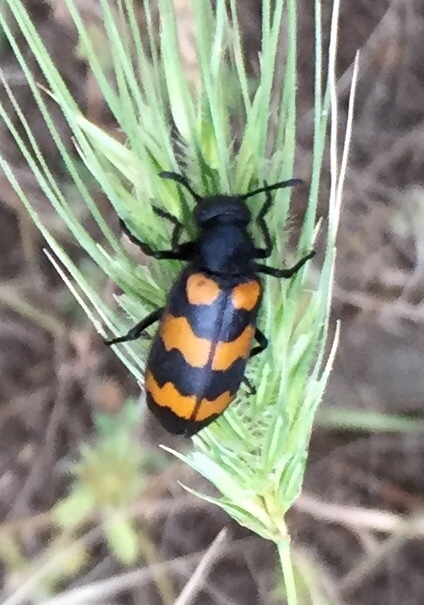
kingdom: Animalia
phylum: Arthropoda
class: Insecta
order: Coleoptera
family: Meloidae
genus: Mylabris
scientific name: Mylabris variabilis
